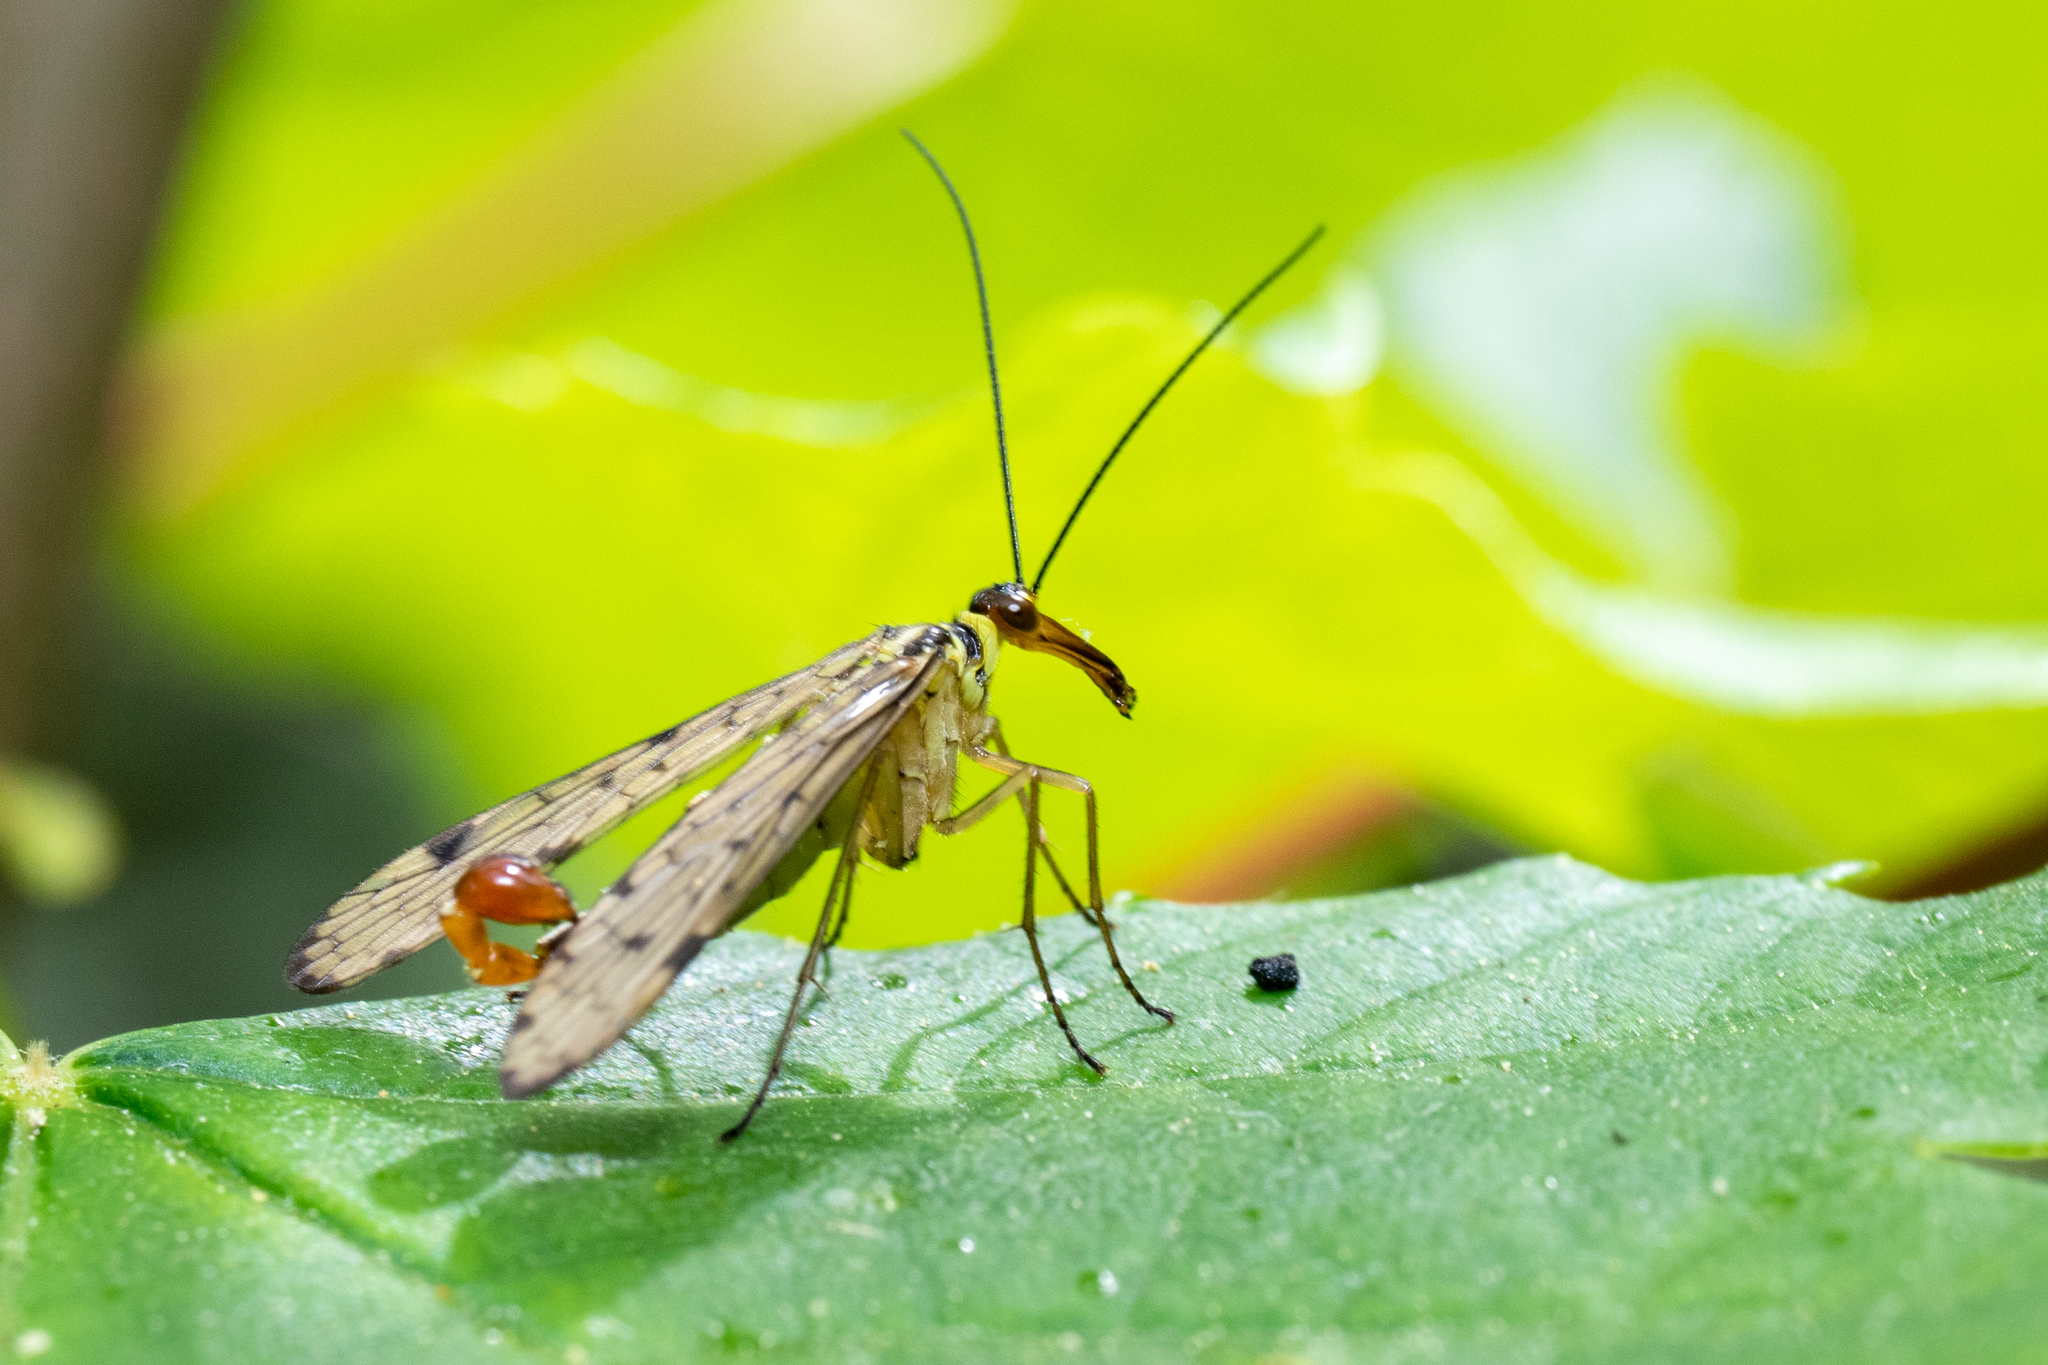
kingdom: Animalia
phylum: Arthropoda
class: Insecta
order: Mecoptera
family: Panorpidae
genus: Panorpa
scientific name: Panorpa germanica
